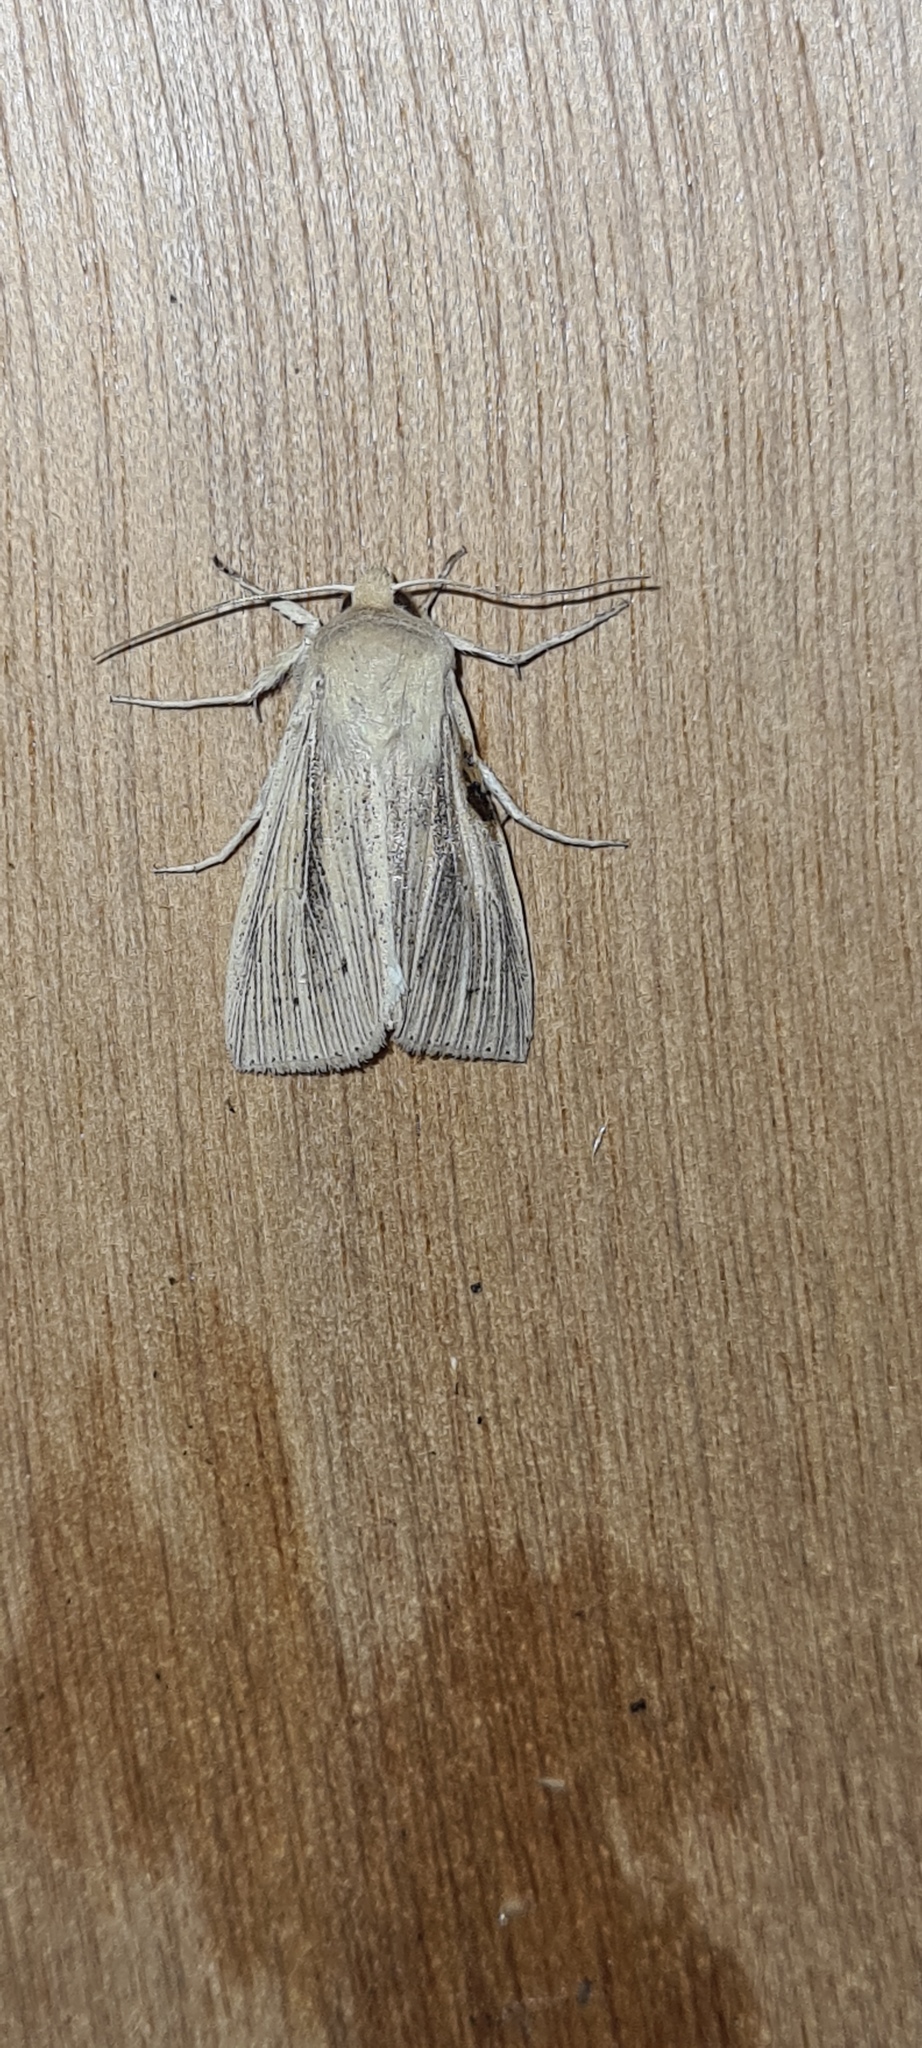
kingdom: Animalia
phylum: Arthropoda
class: Insecta
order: Lepidoptera
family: Noctuidae
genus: Leucania
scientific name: Leucania obsoleta
